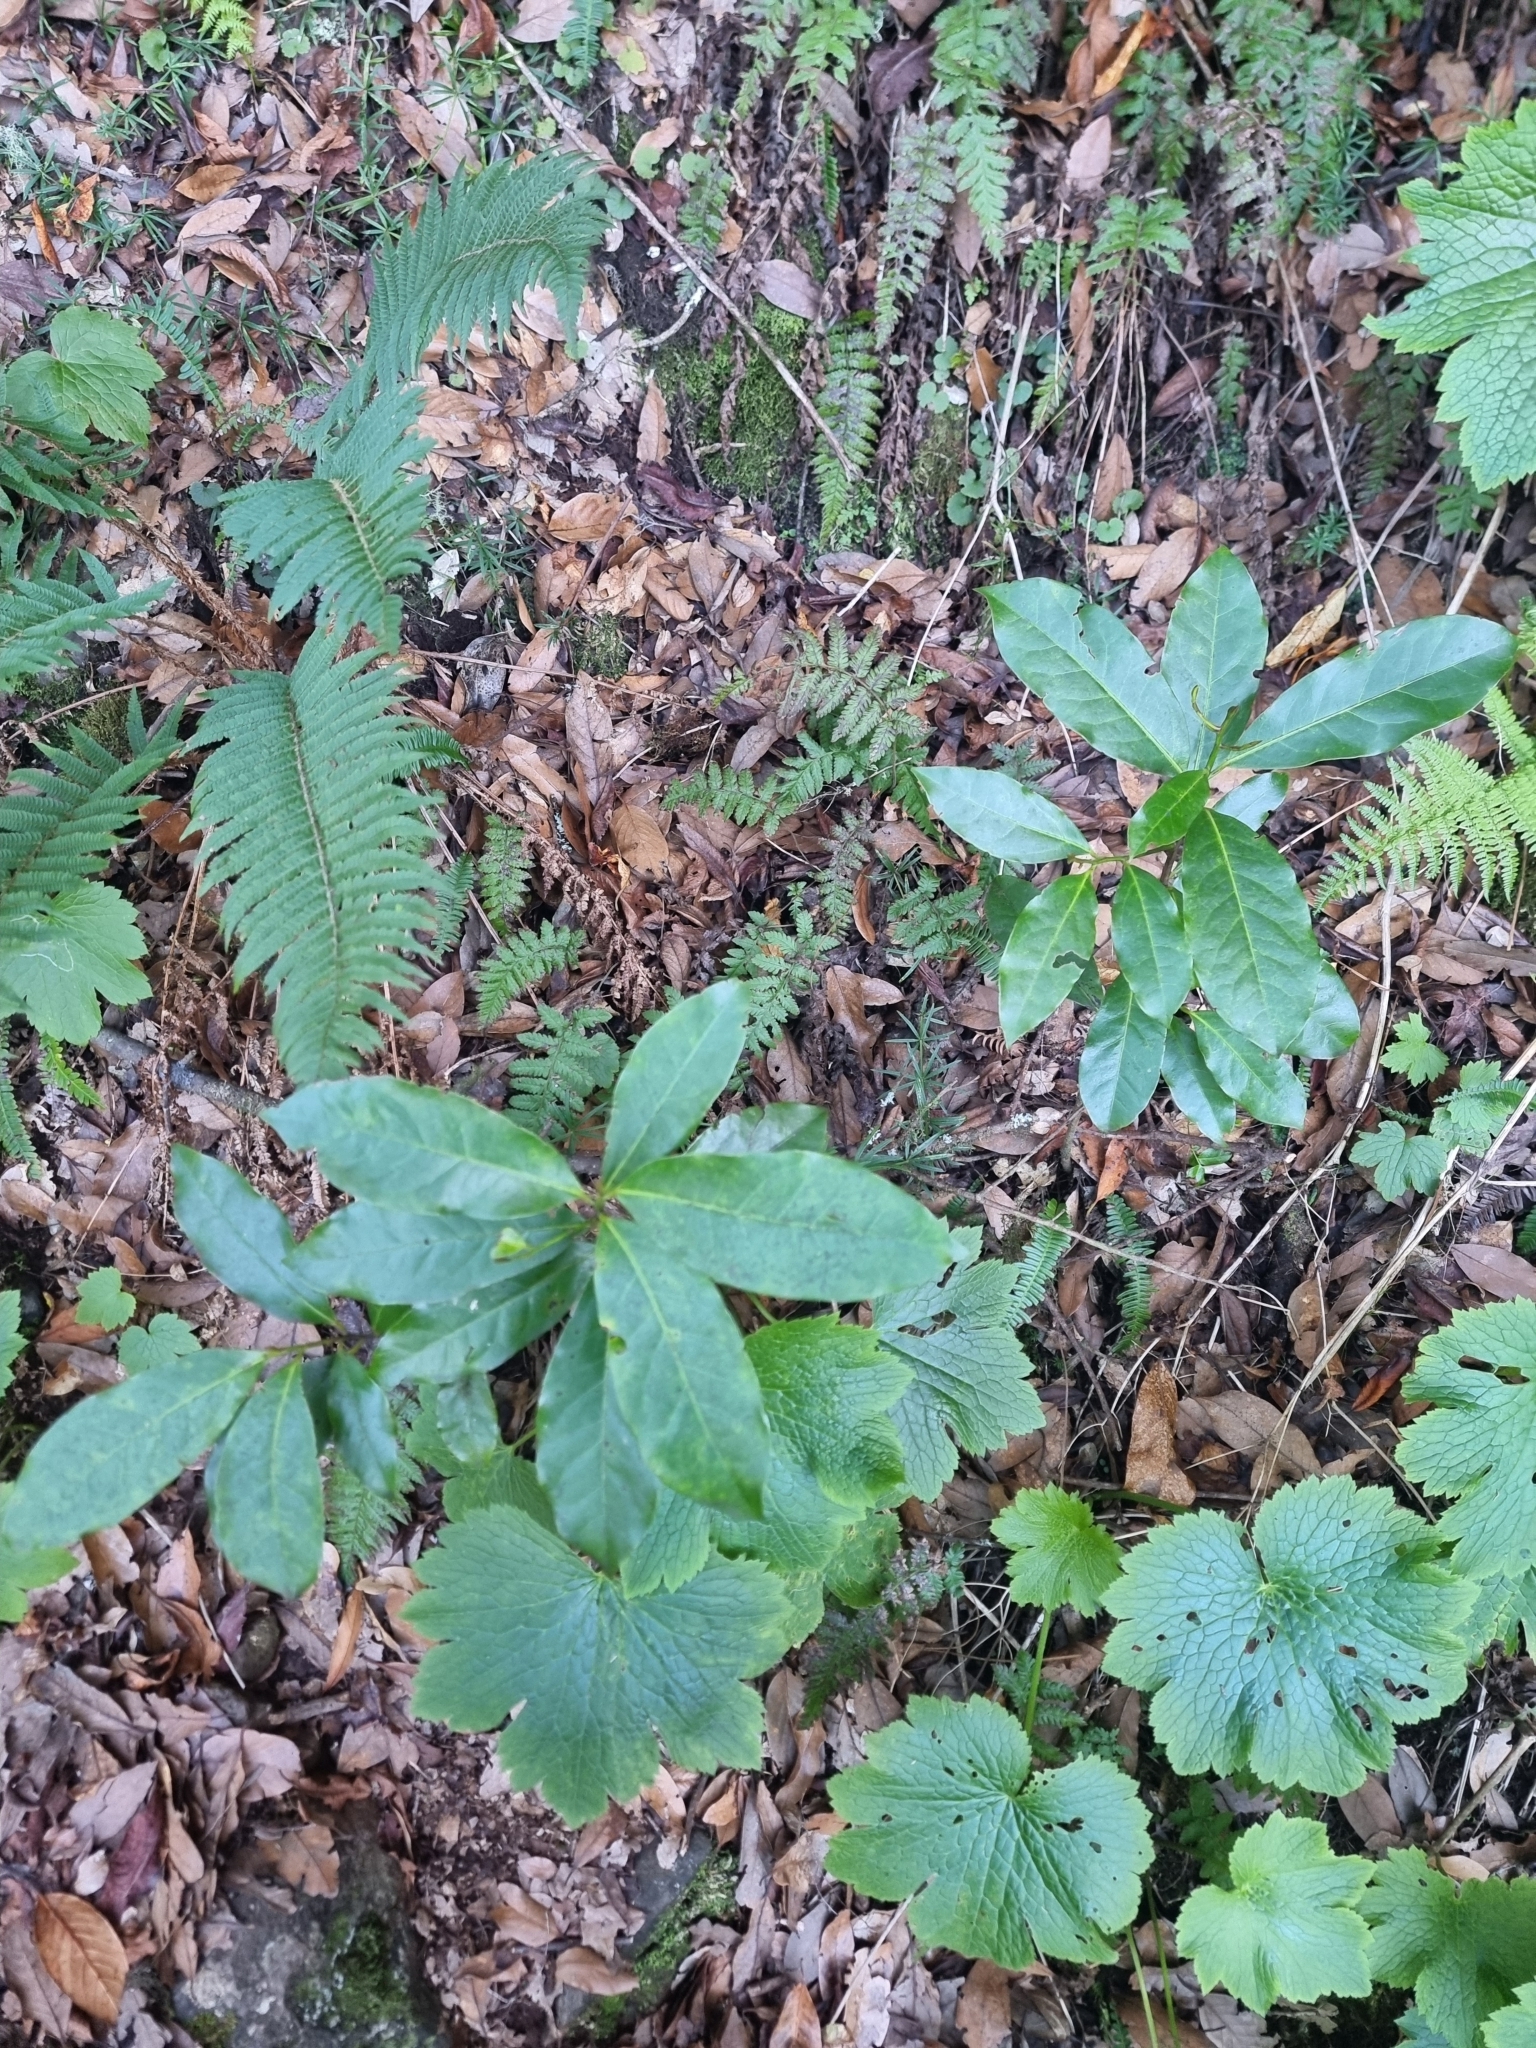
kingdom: Plantae
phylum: Tracheophyta
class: Magnoliopsida
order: Laurales
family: Lauraceae
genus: Mespilodaphne
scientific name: Mespilodaphne foetens
